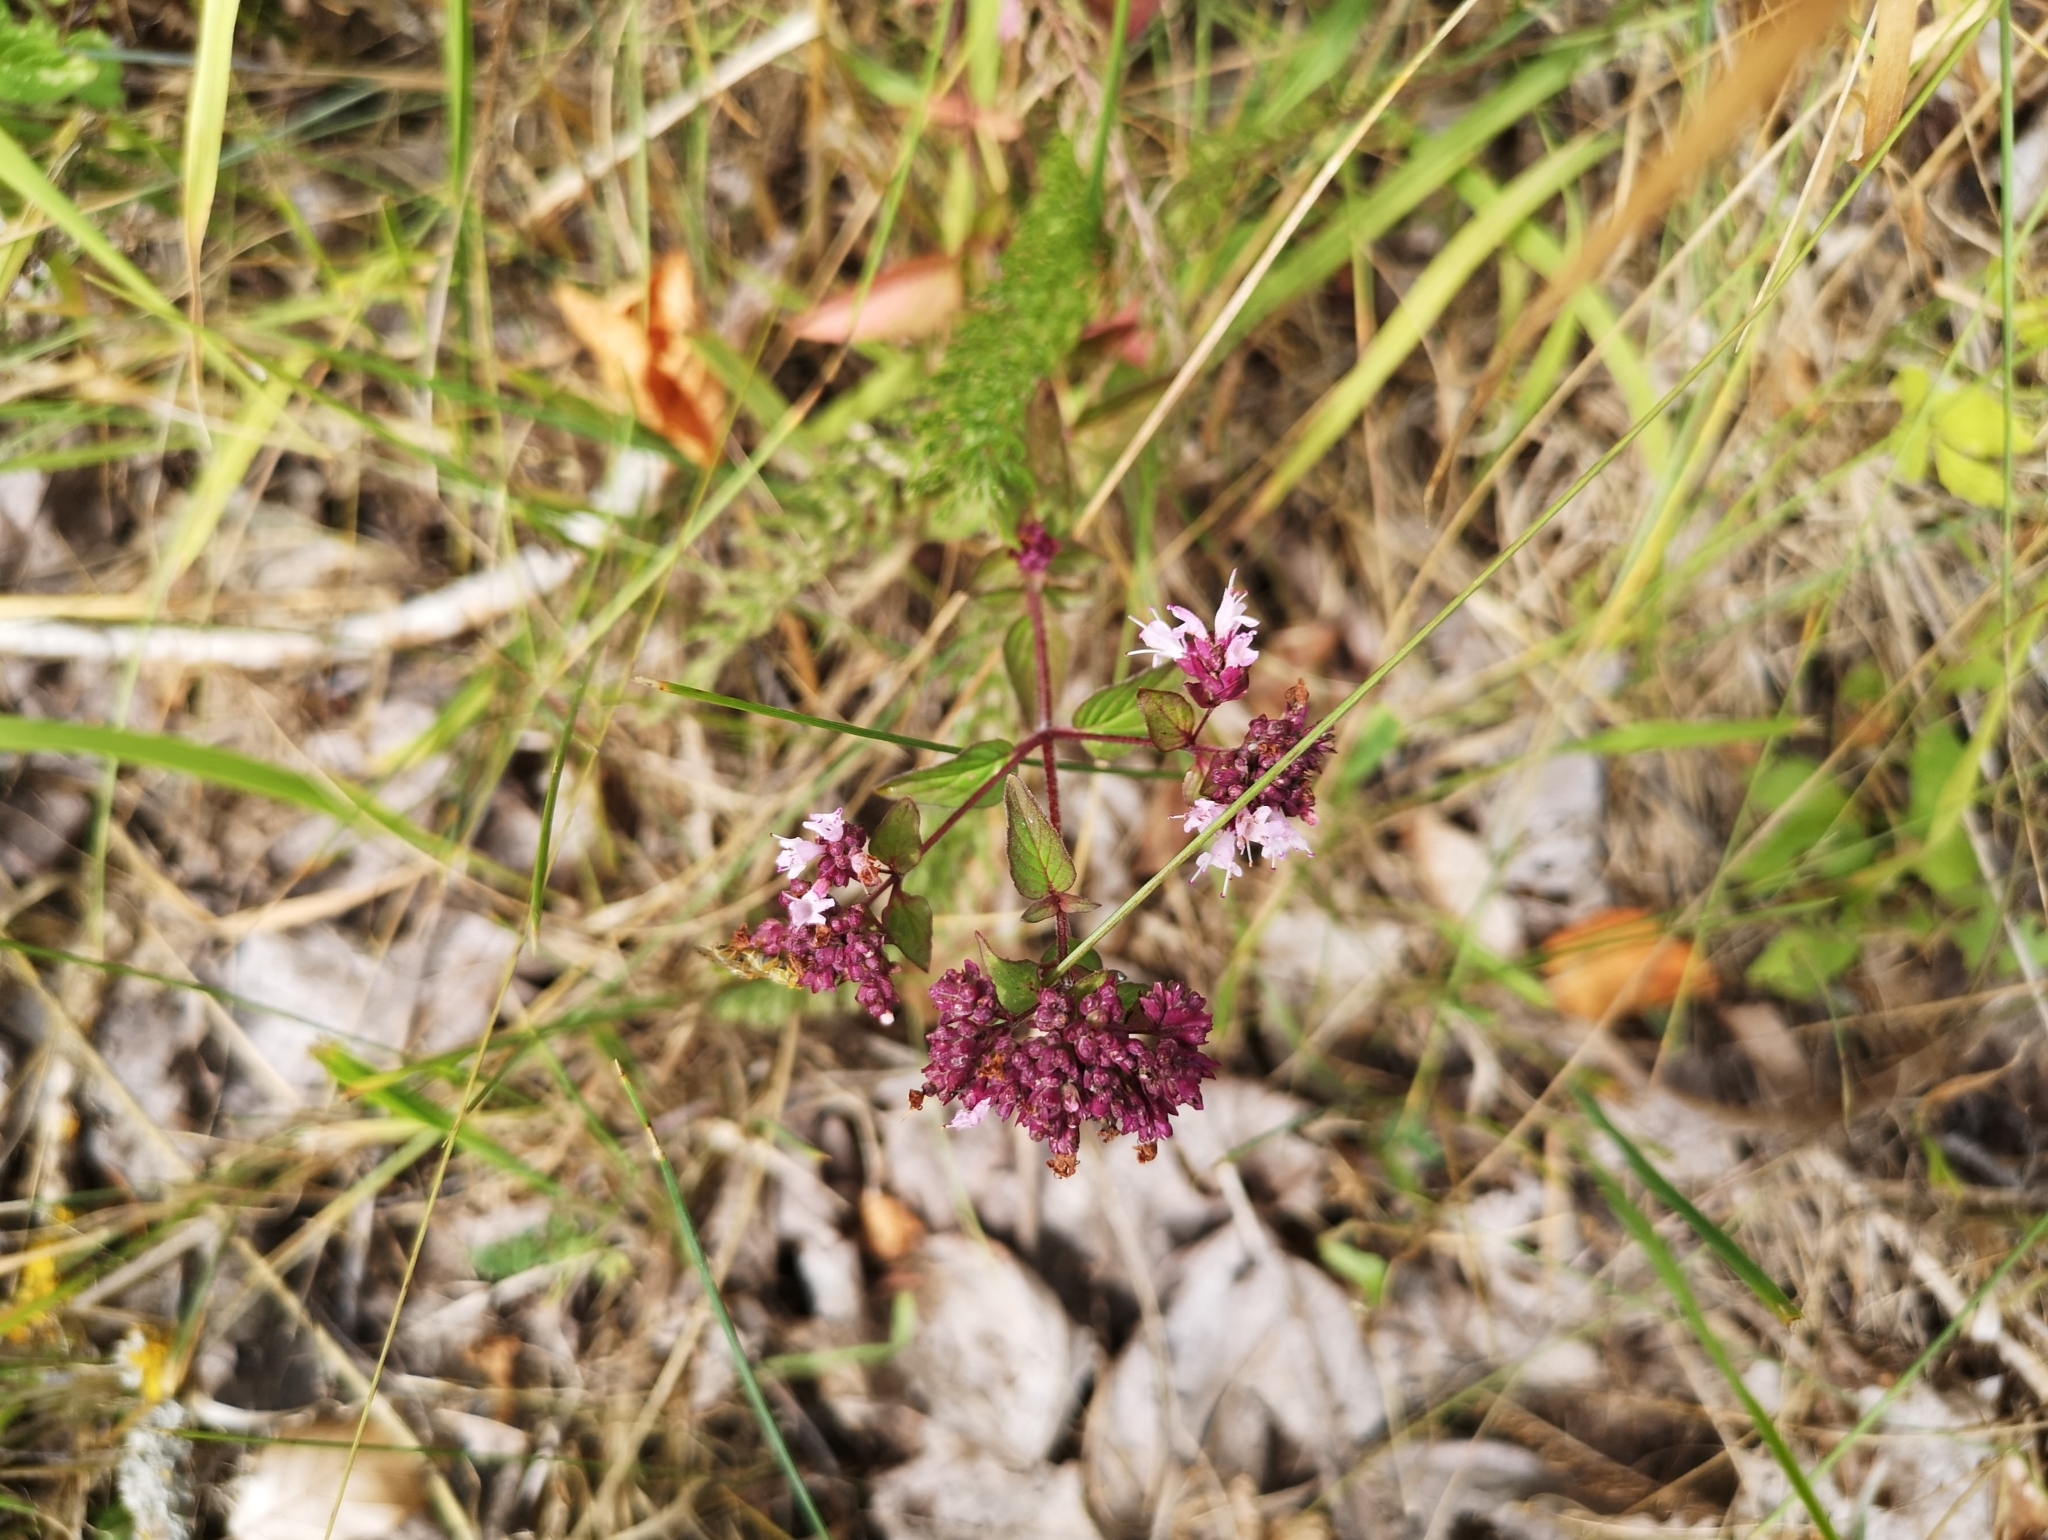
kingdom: Plantae
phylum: Tracheophyta
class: Magnoliopsida
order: Lamiales
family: Lamiaceae
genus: Origanum
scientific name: Origanum vulgare
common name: Wild marjoram
